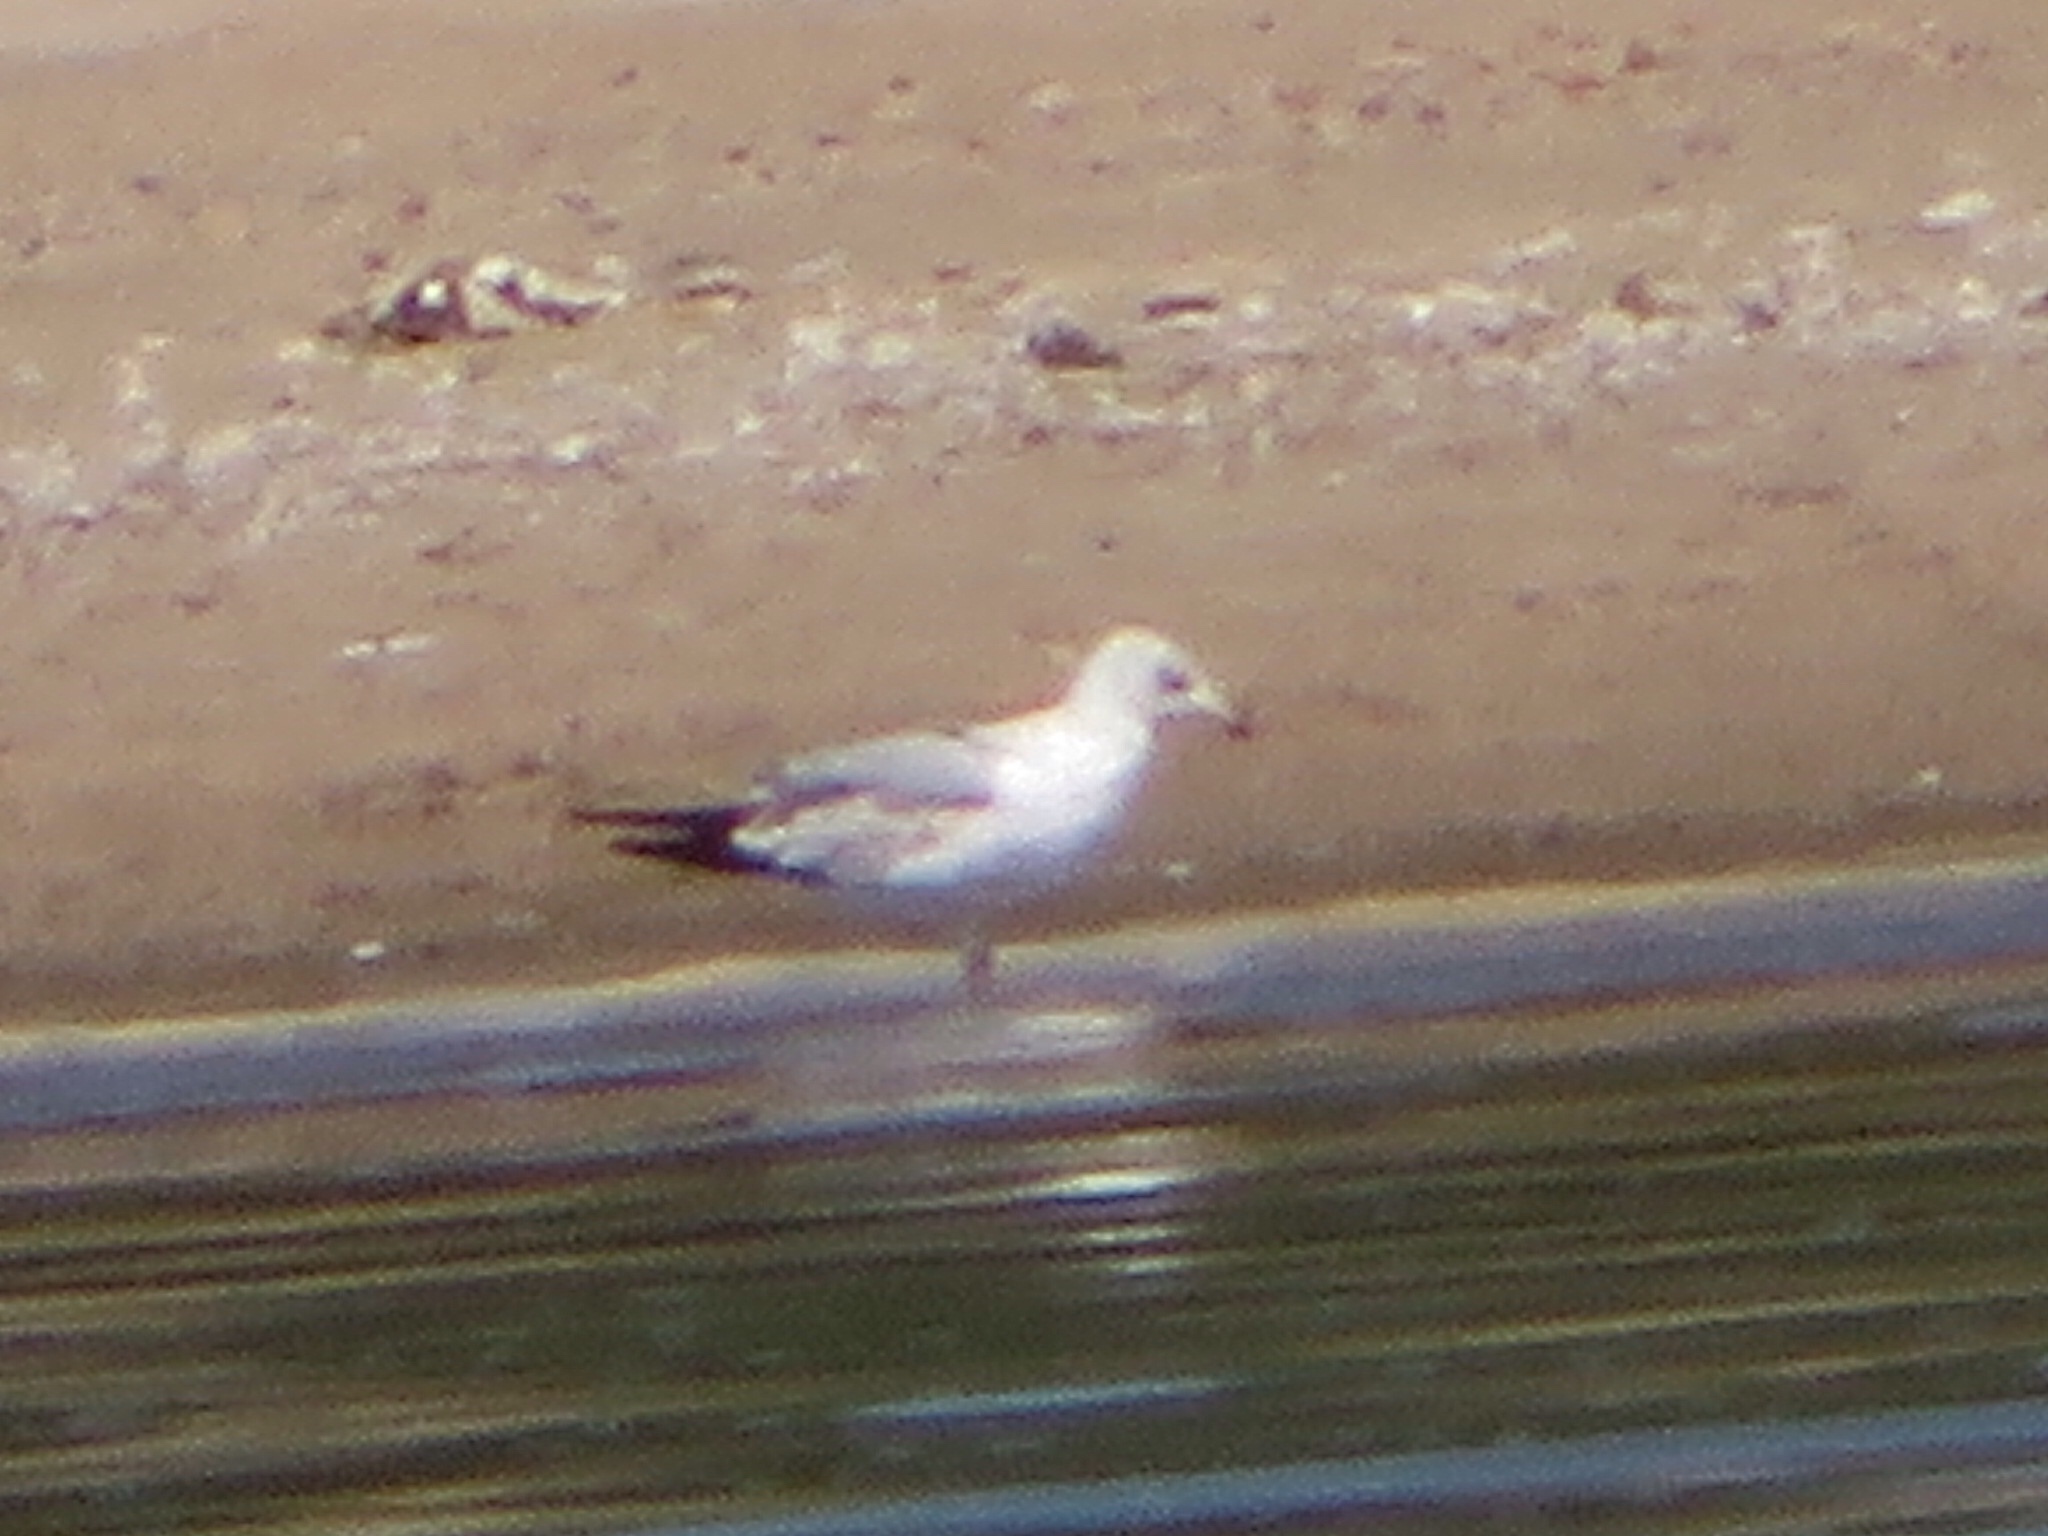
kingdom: Animalia
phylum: Chordata
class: Aves
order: Charadriiformes
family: Laridae
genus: Larus
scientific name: Larus delawarensis
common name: Ring-billed gull
